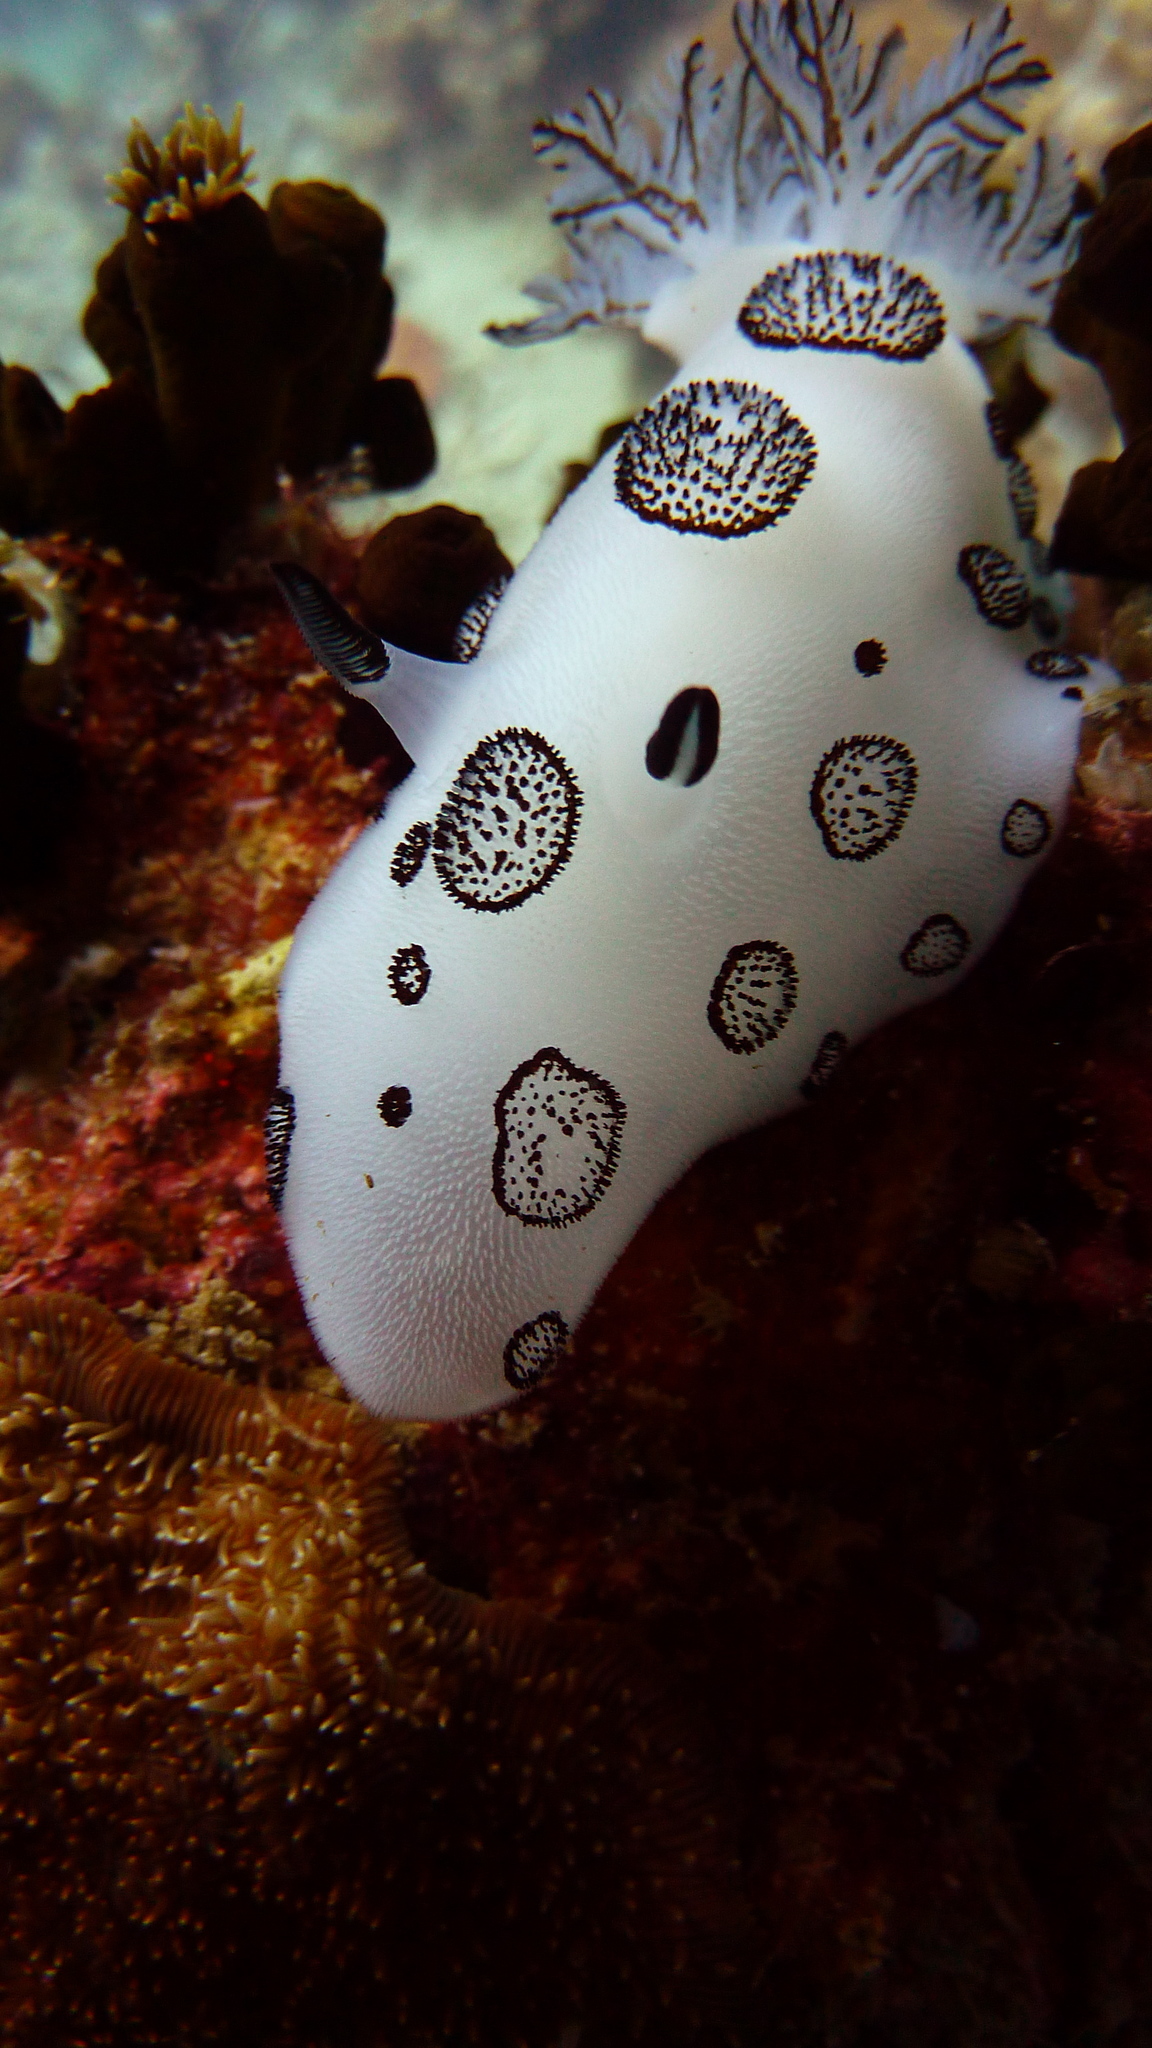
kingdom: Animalia
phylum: Mollusca
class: Gastropoda
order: Nudibranchia
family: Discodorididae
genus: Jorunna
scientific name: Jorunna funebris
